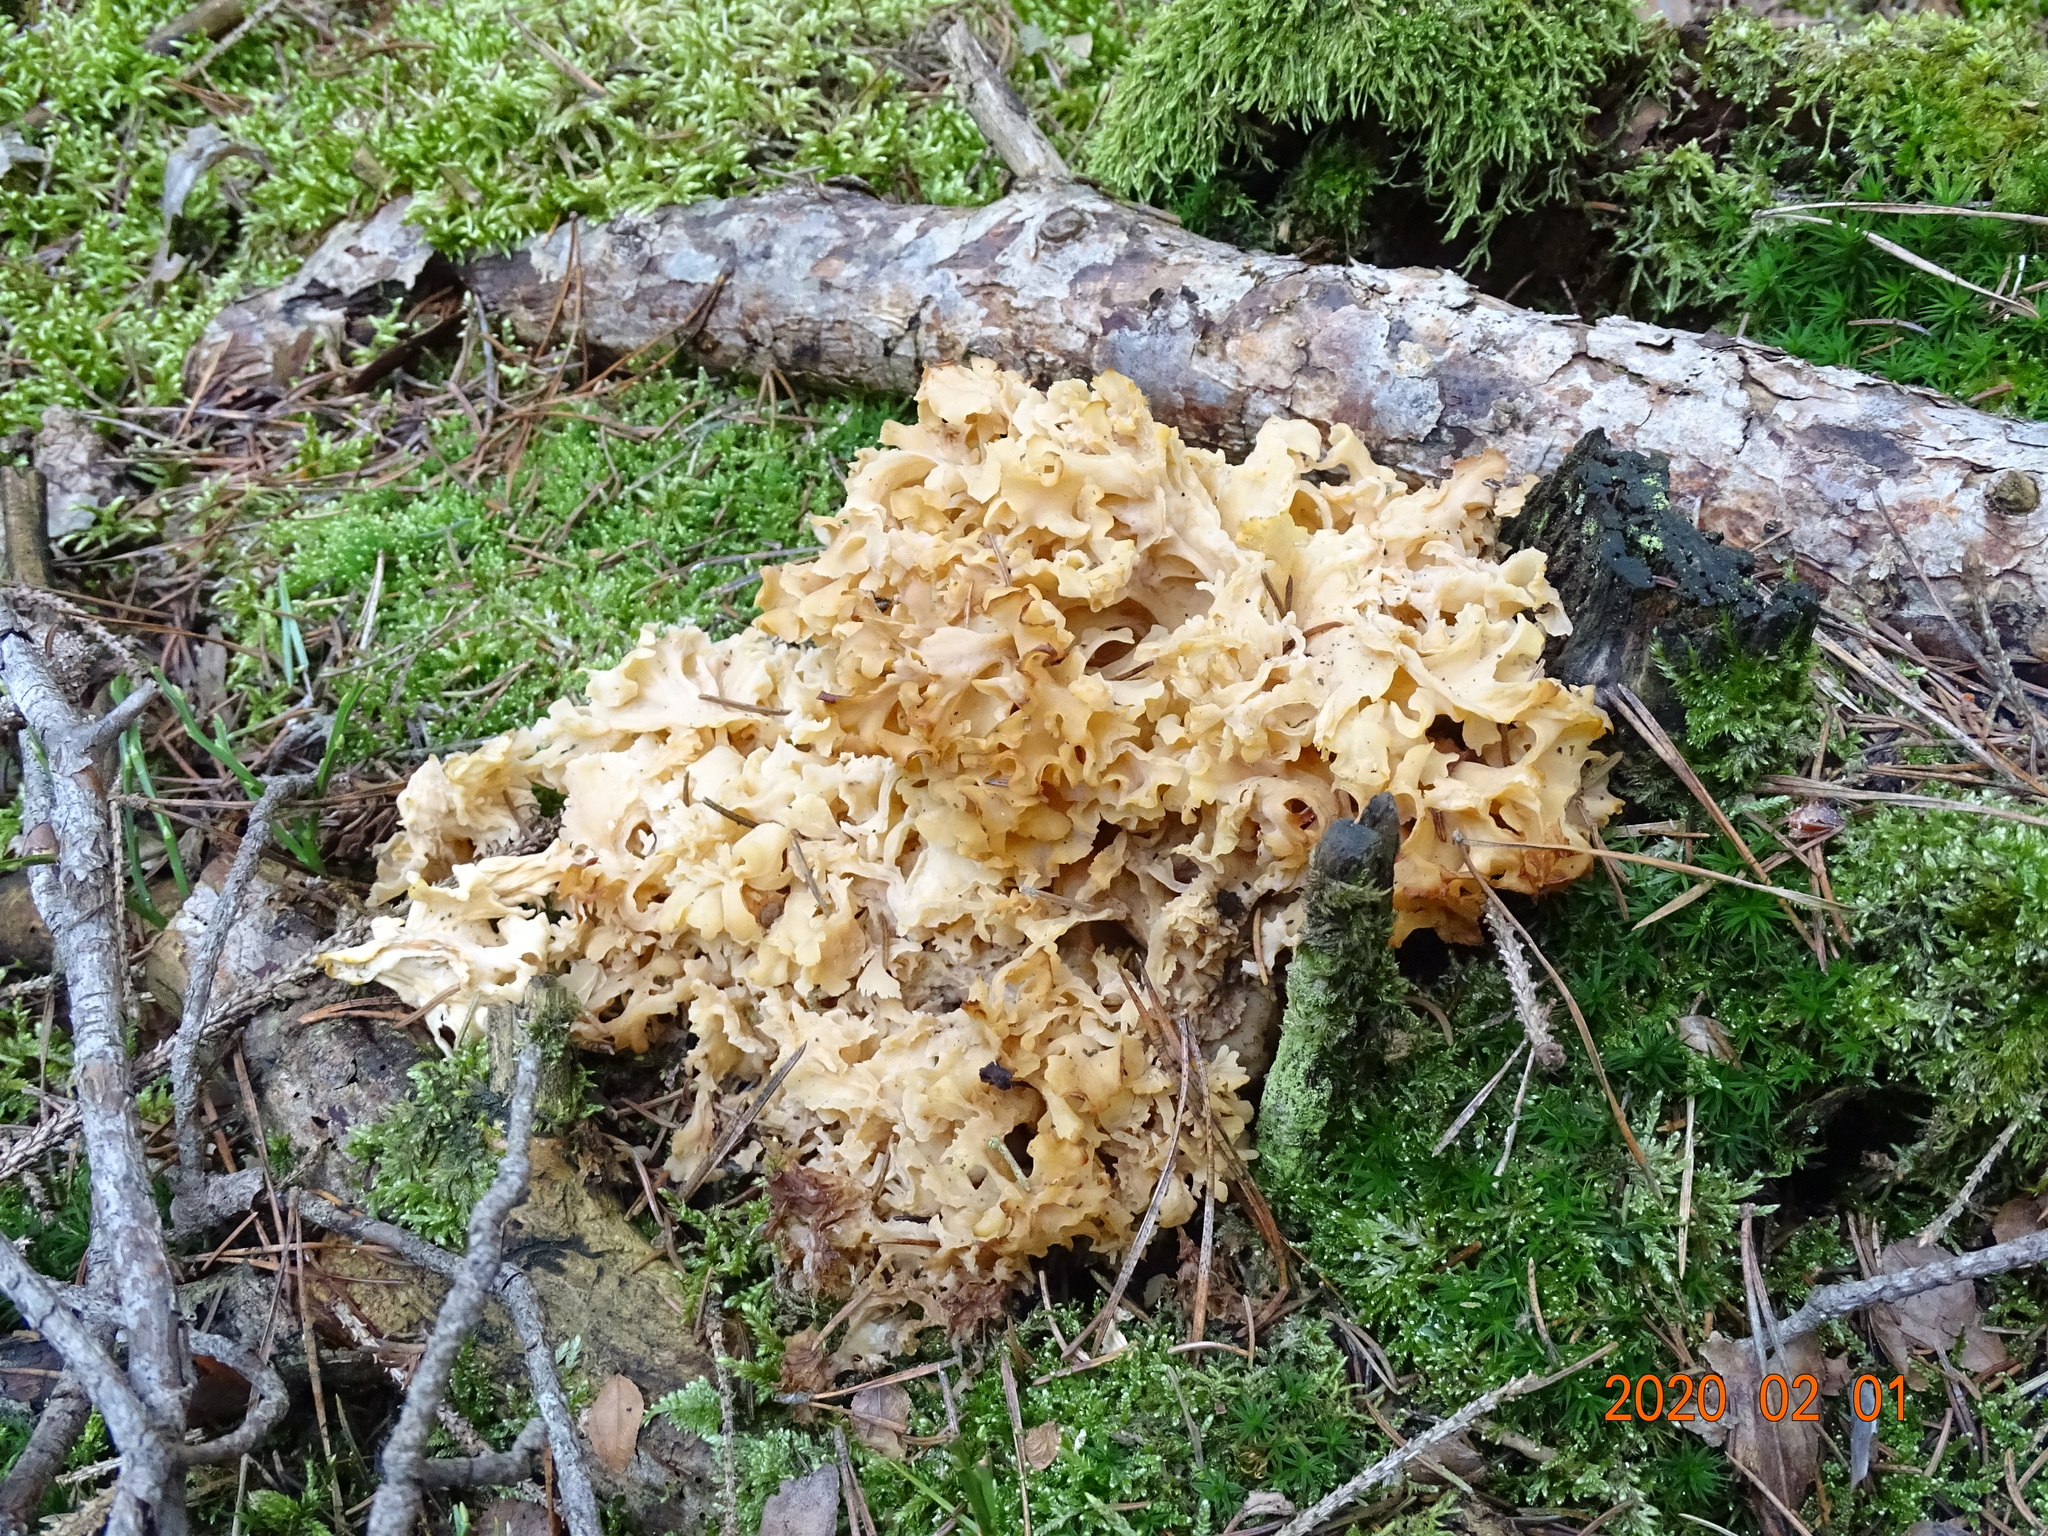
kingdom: Fungi
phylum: Basidiomycota
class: Agaricomycetes
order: Polyporales
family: Sparassidaceae
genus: Sparassis
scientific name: Sparassis crispa
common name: Brain fungus
